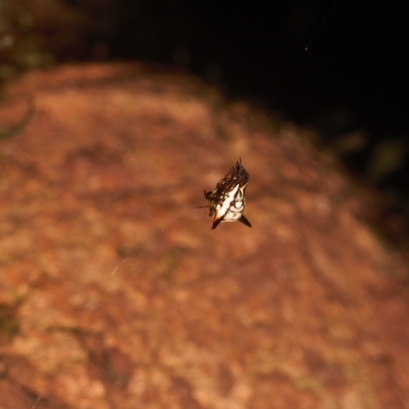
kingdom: Animalia
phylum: Arthropoda
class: Arachnida
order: Araneae
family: Araneidae
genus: Micrathena
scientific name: Micrathena triangularispinosa
